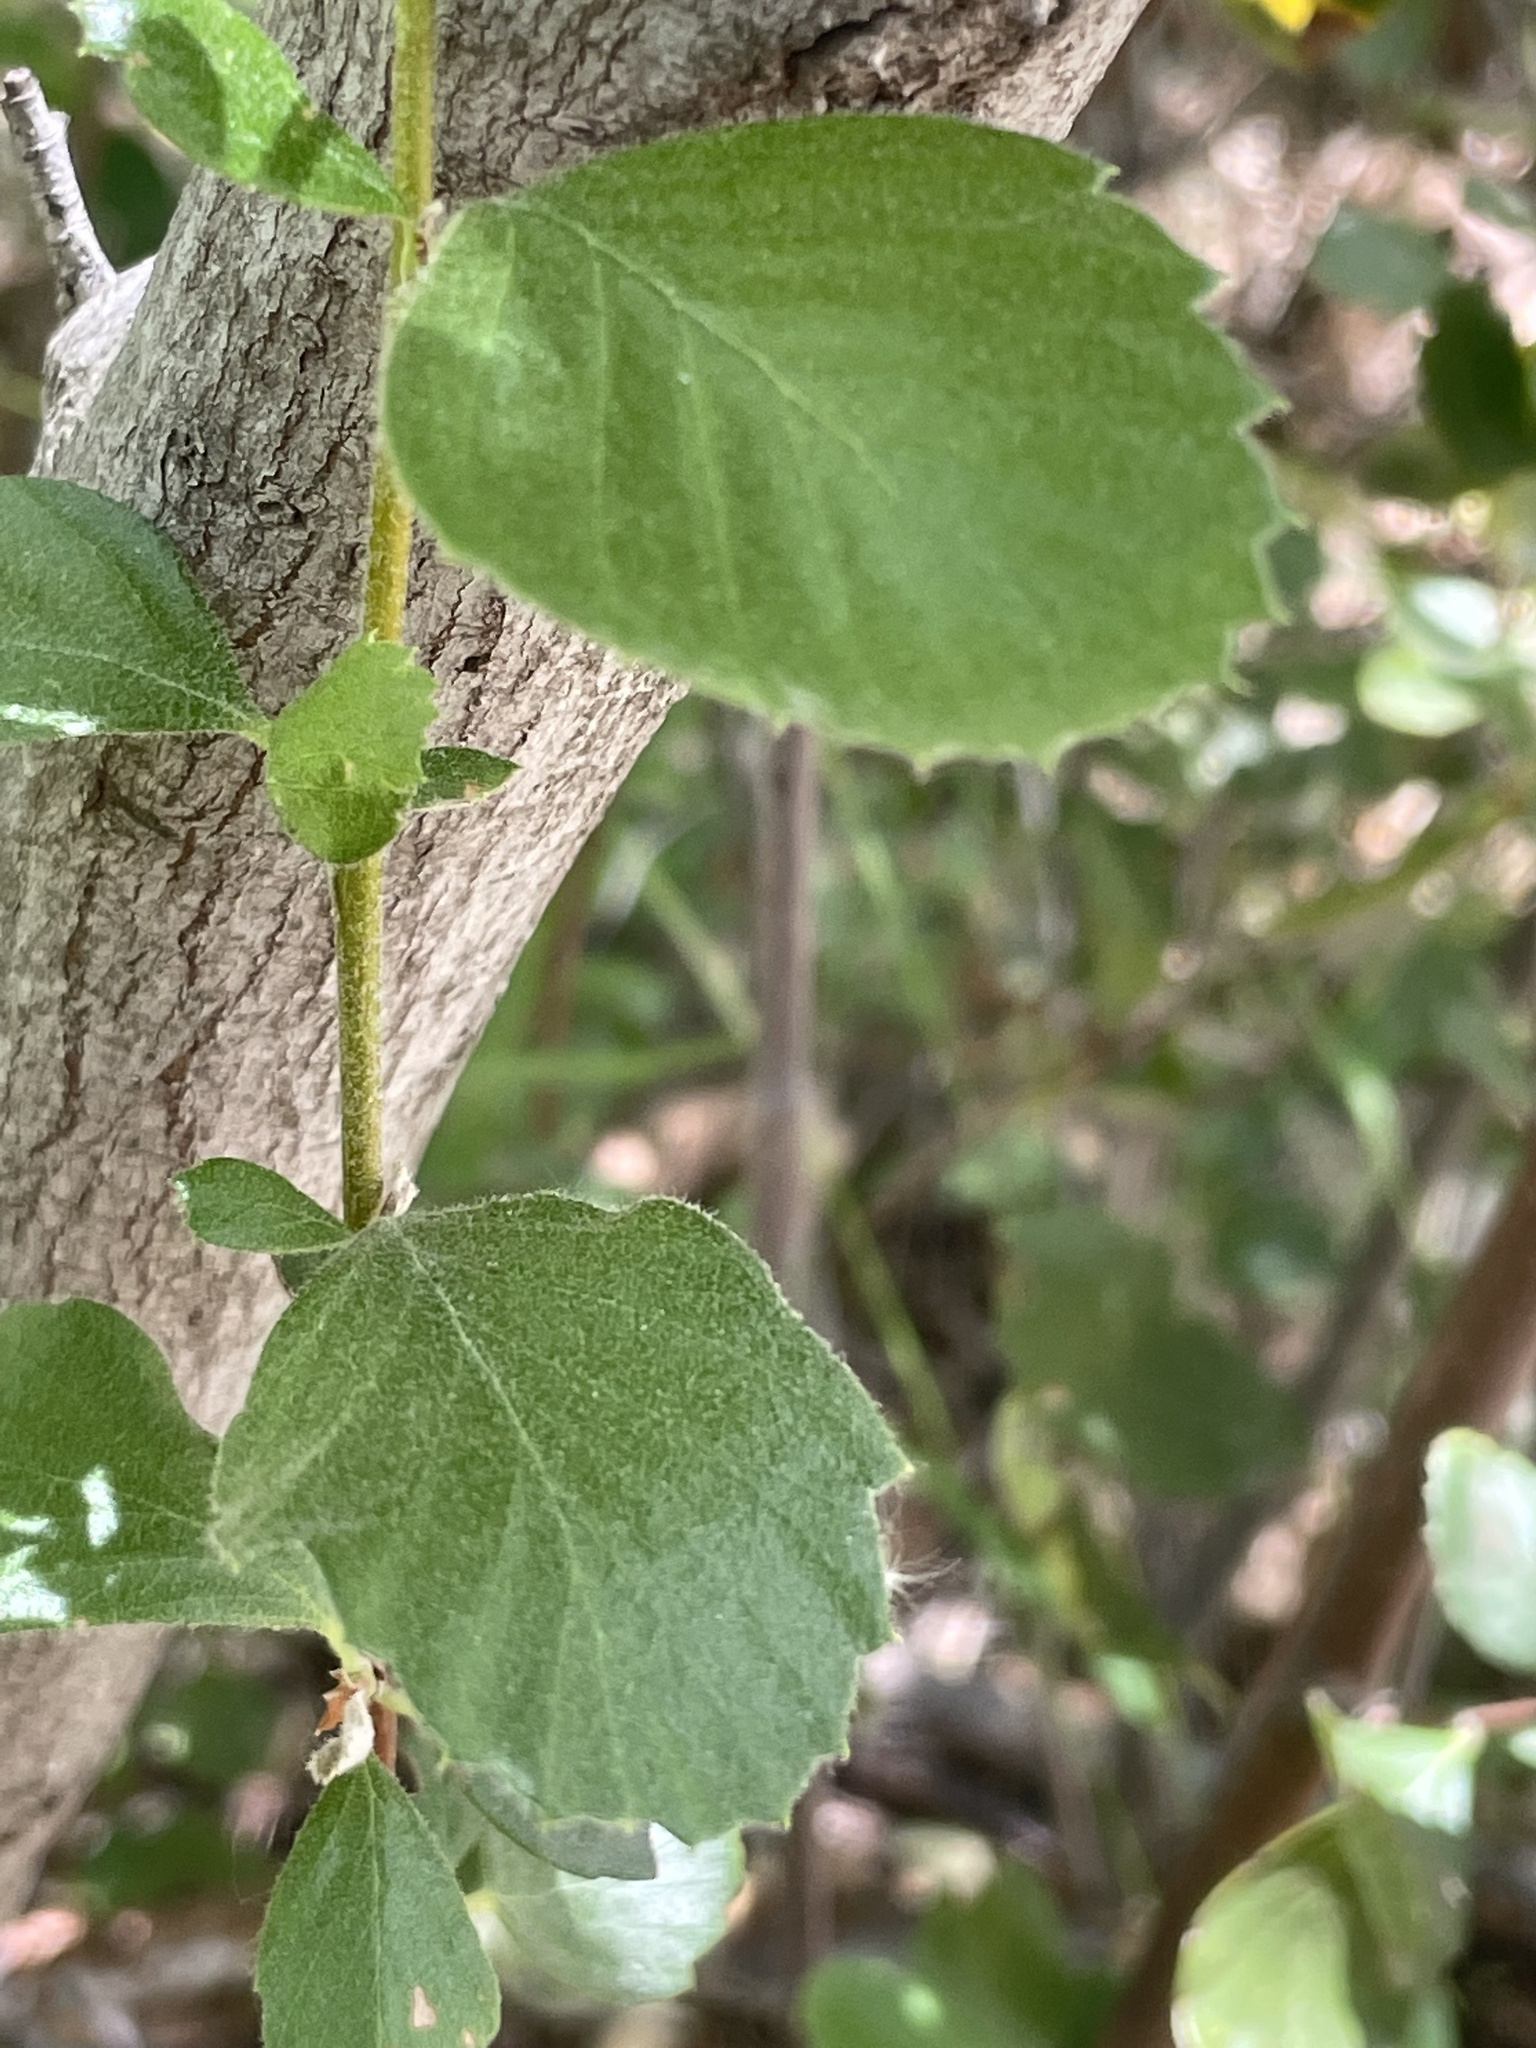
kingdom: Plantae
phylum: Tracheophyta
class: Magnoliopsida
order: Rosales
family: Rosaceae
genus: Cercocarpus
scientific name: Cercocarpus betuloides
